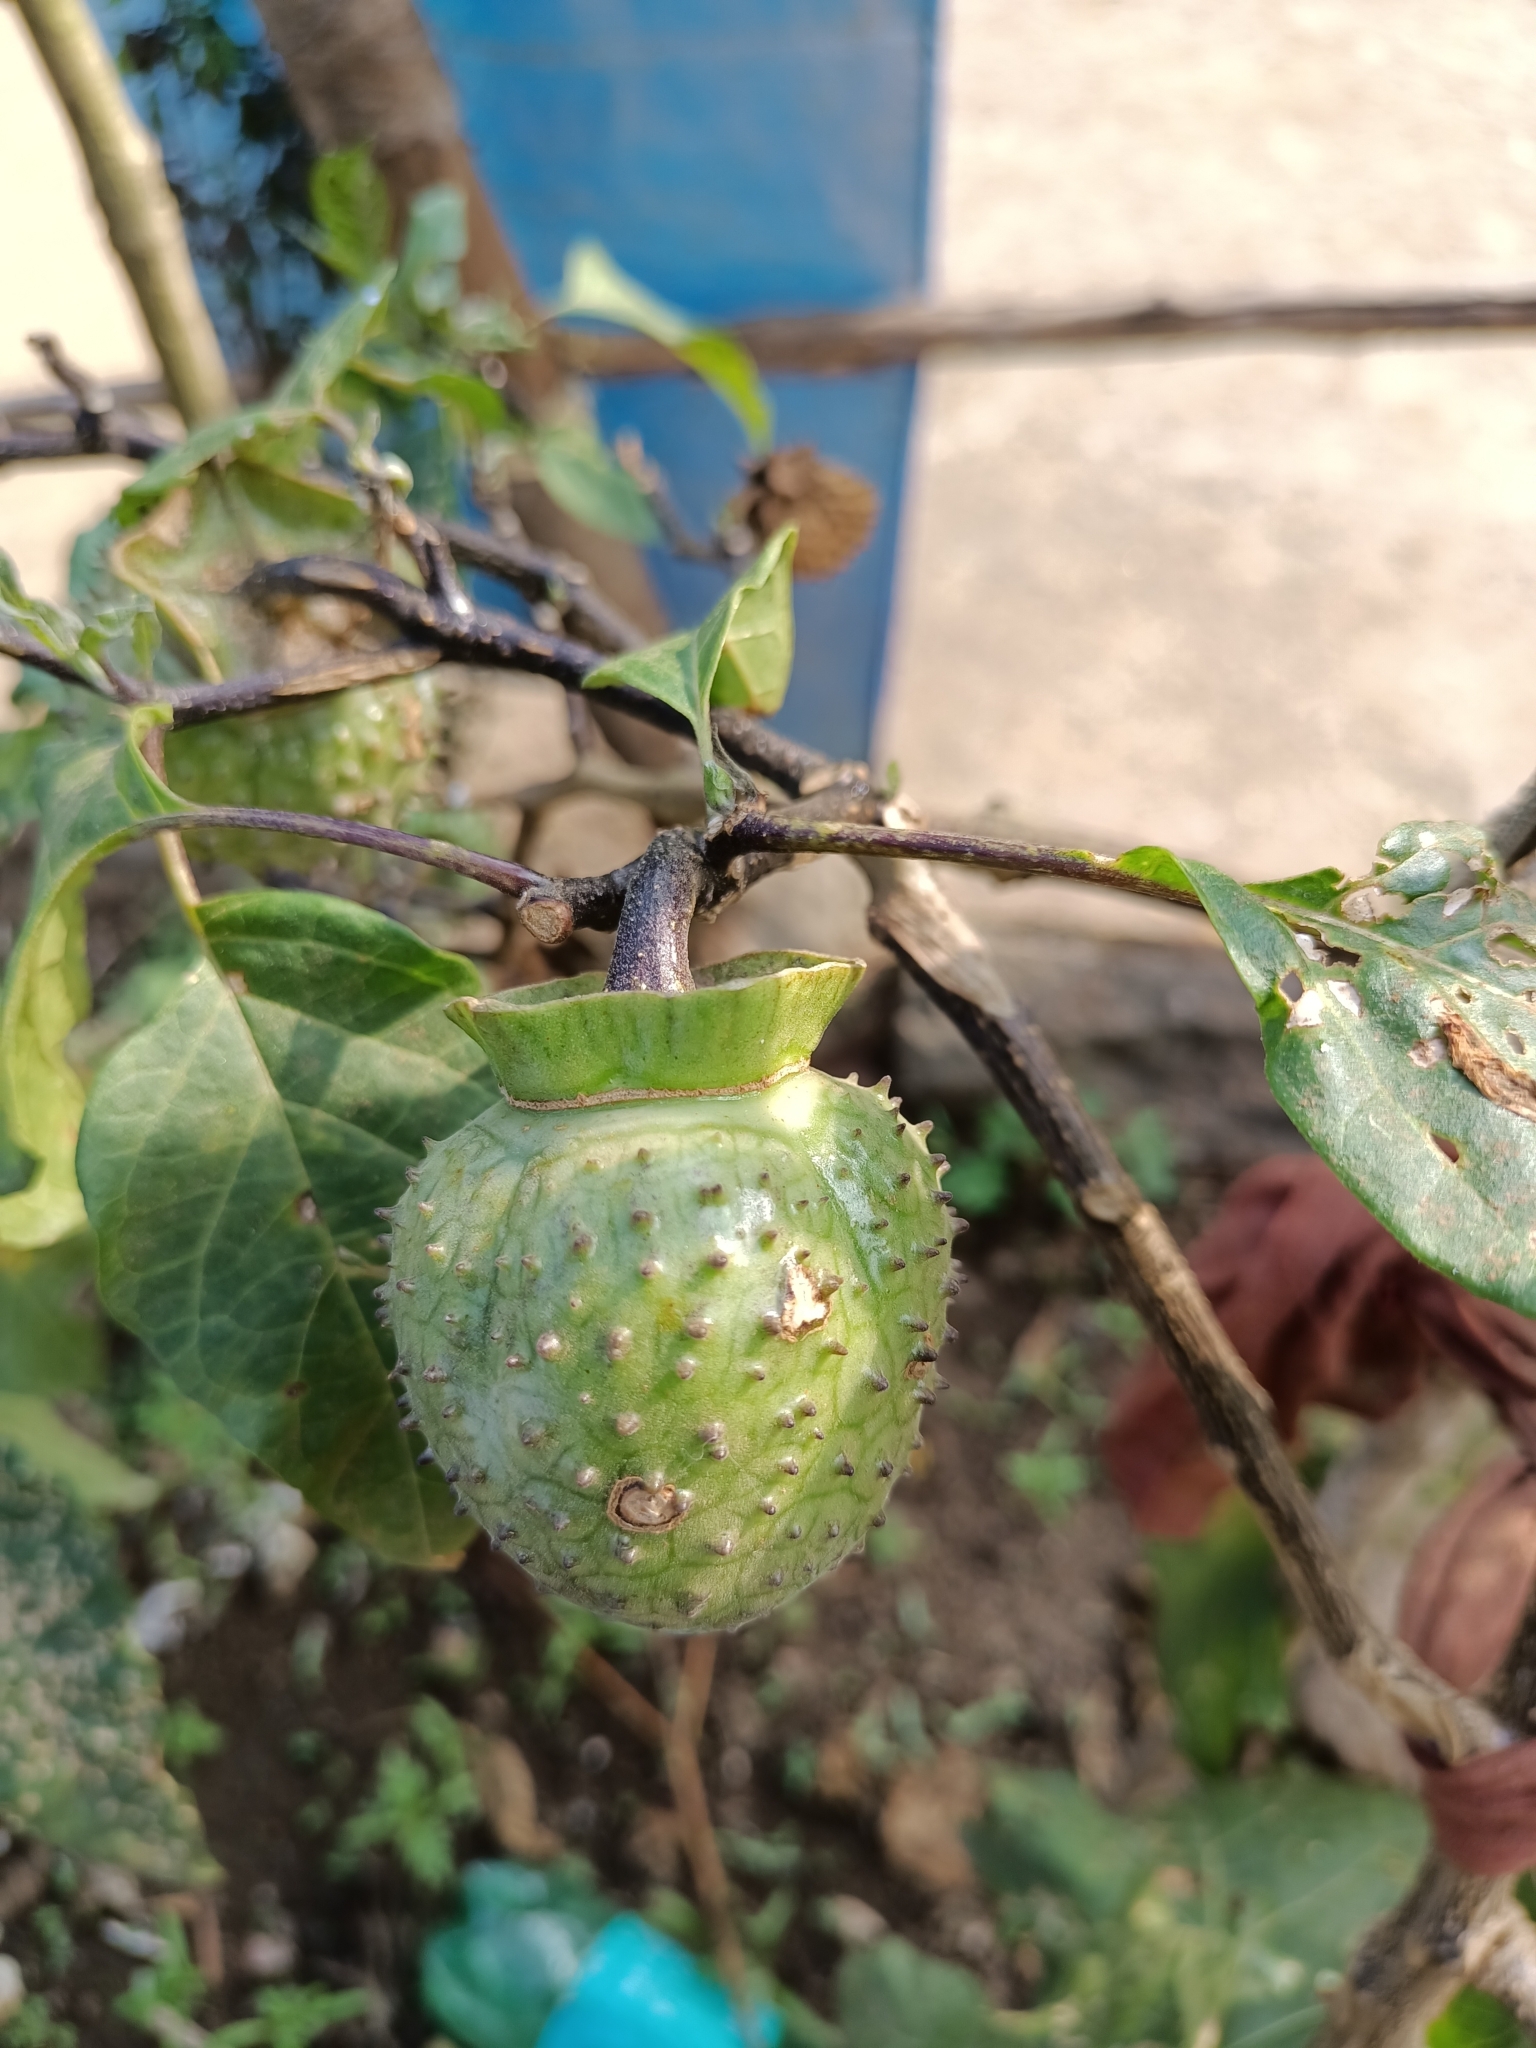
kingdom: Plantae
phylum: Tracheophyta
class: Magnoliopsida
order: Solanales
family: Solanaceae
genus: Datura
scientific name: Datura metel
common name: Jimsonweed
